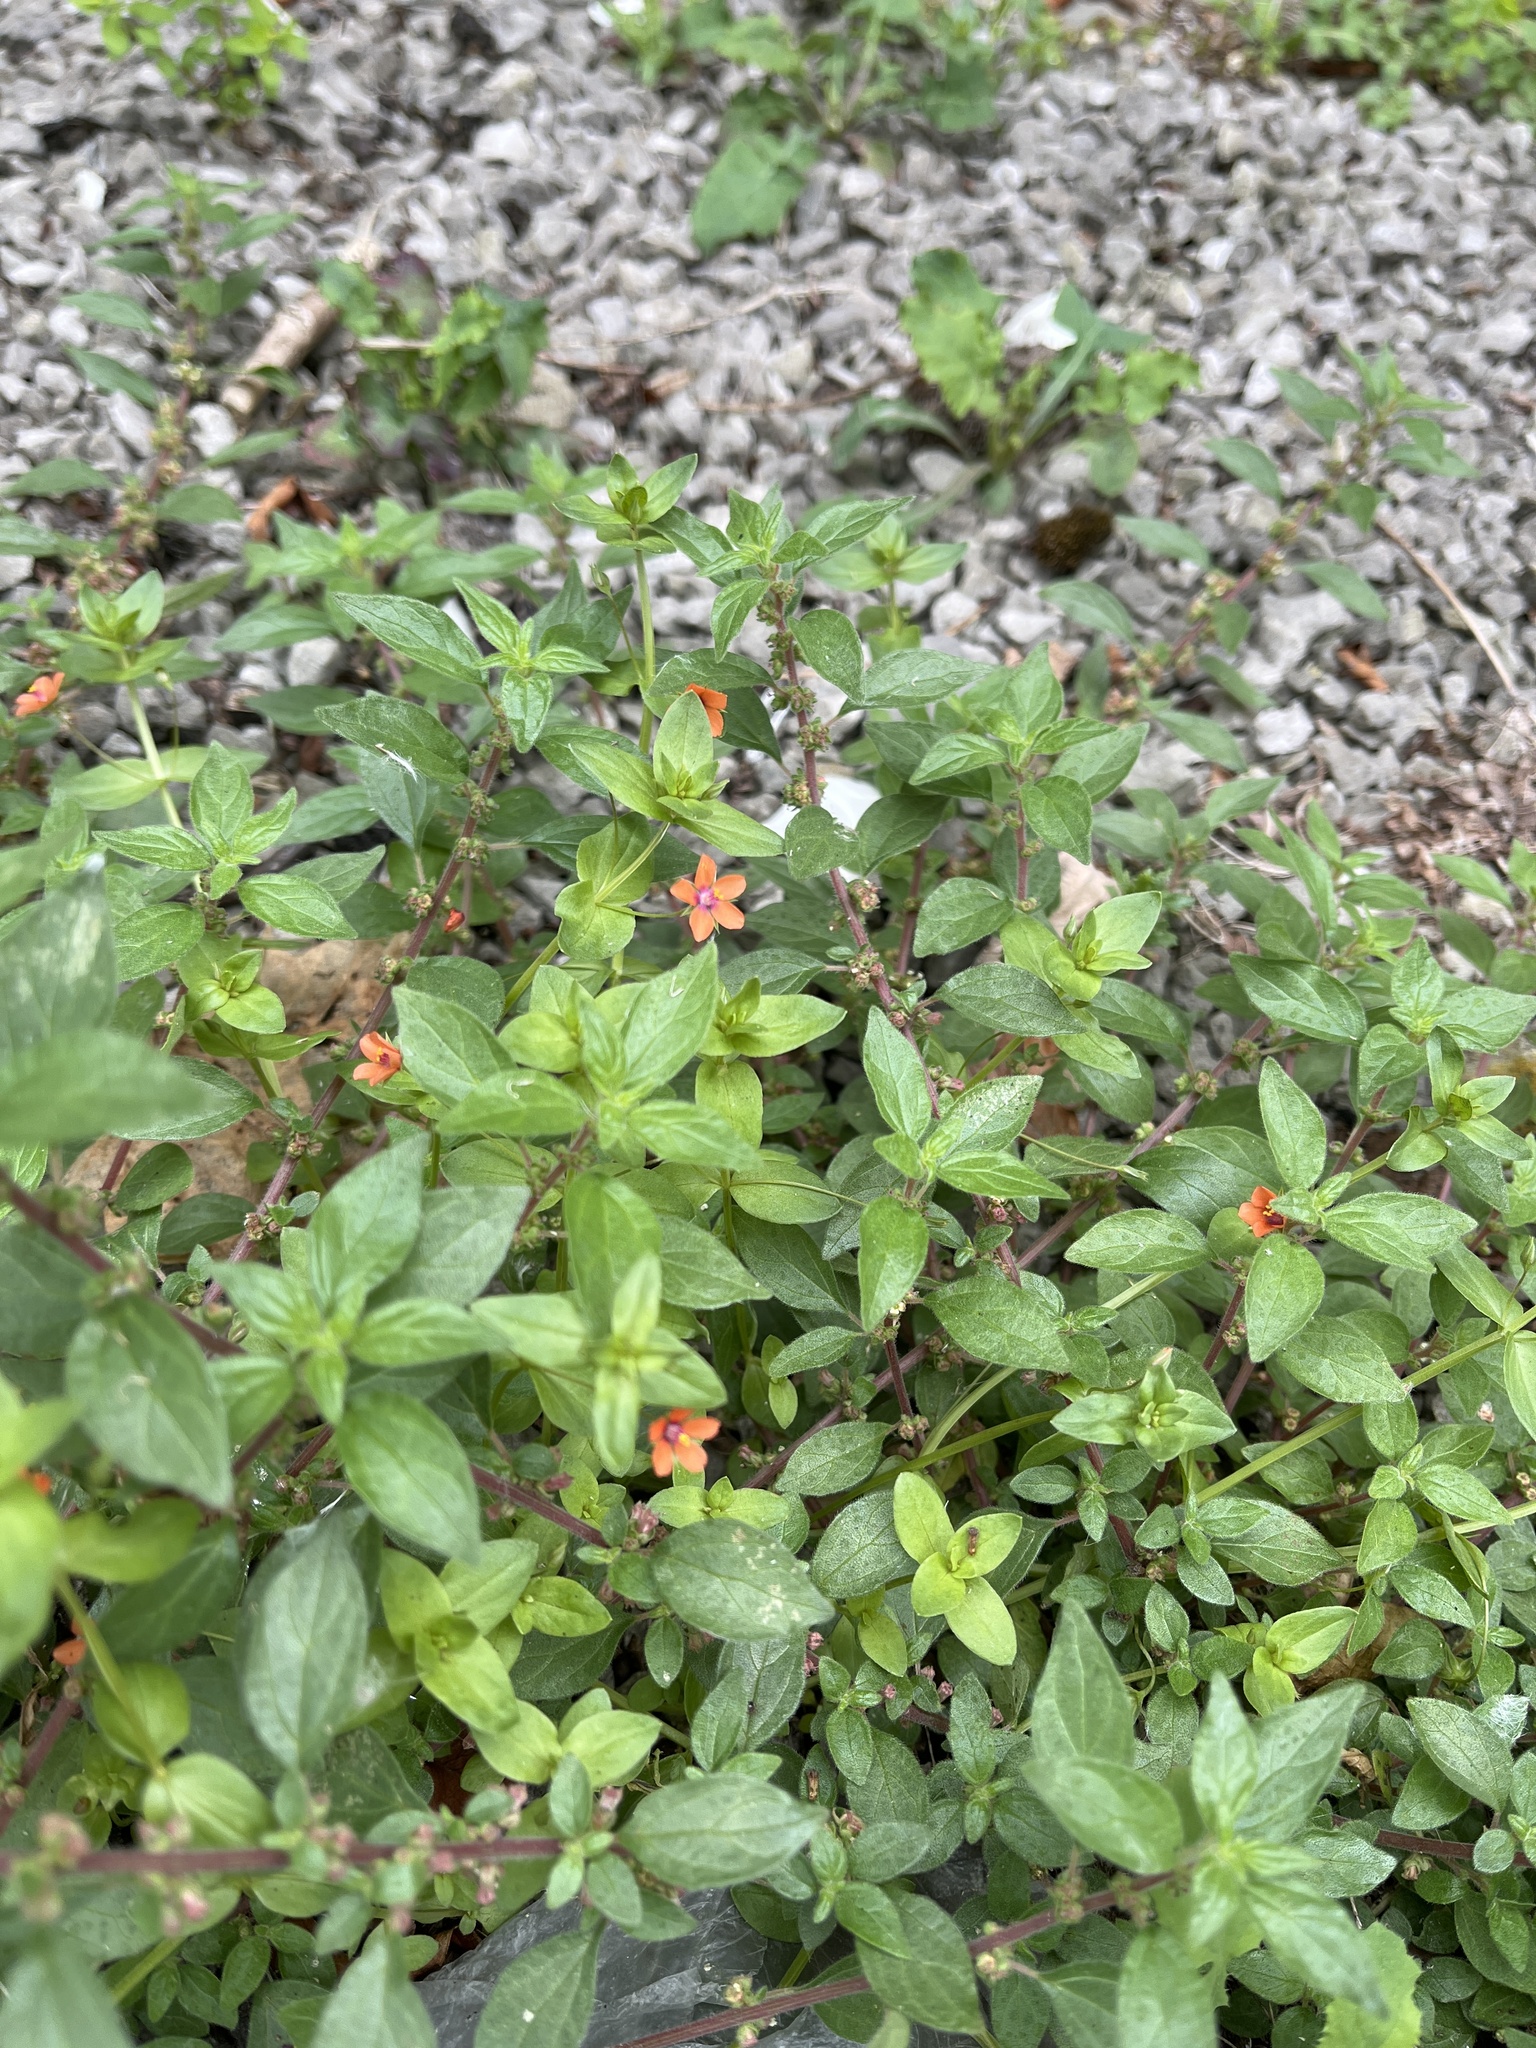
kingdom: Plantae
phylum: Tracheophyta
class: Magnoliopsida
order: Ericales
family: Primulaceae
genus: Lysimachia
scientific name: Lysimachia arvensis
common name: Scarlet pimpernel
